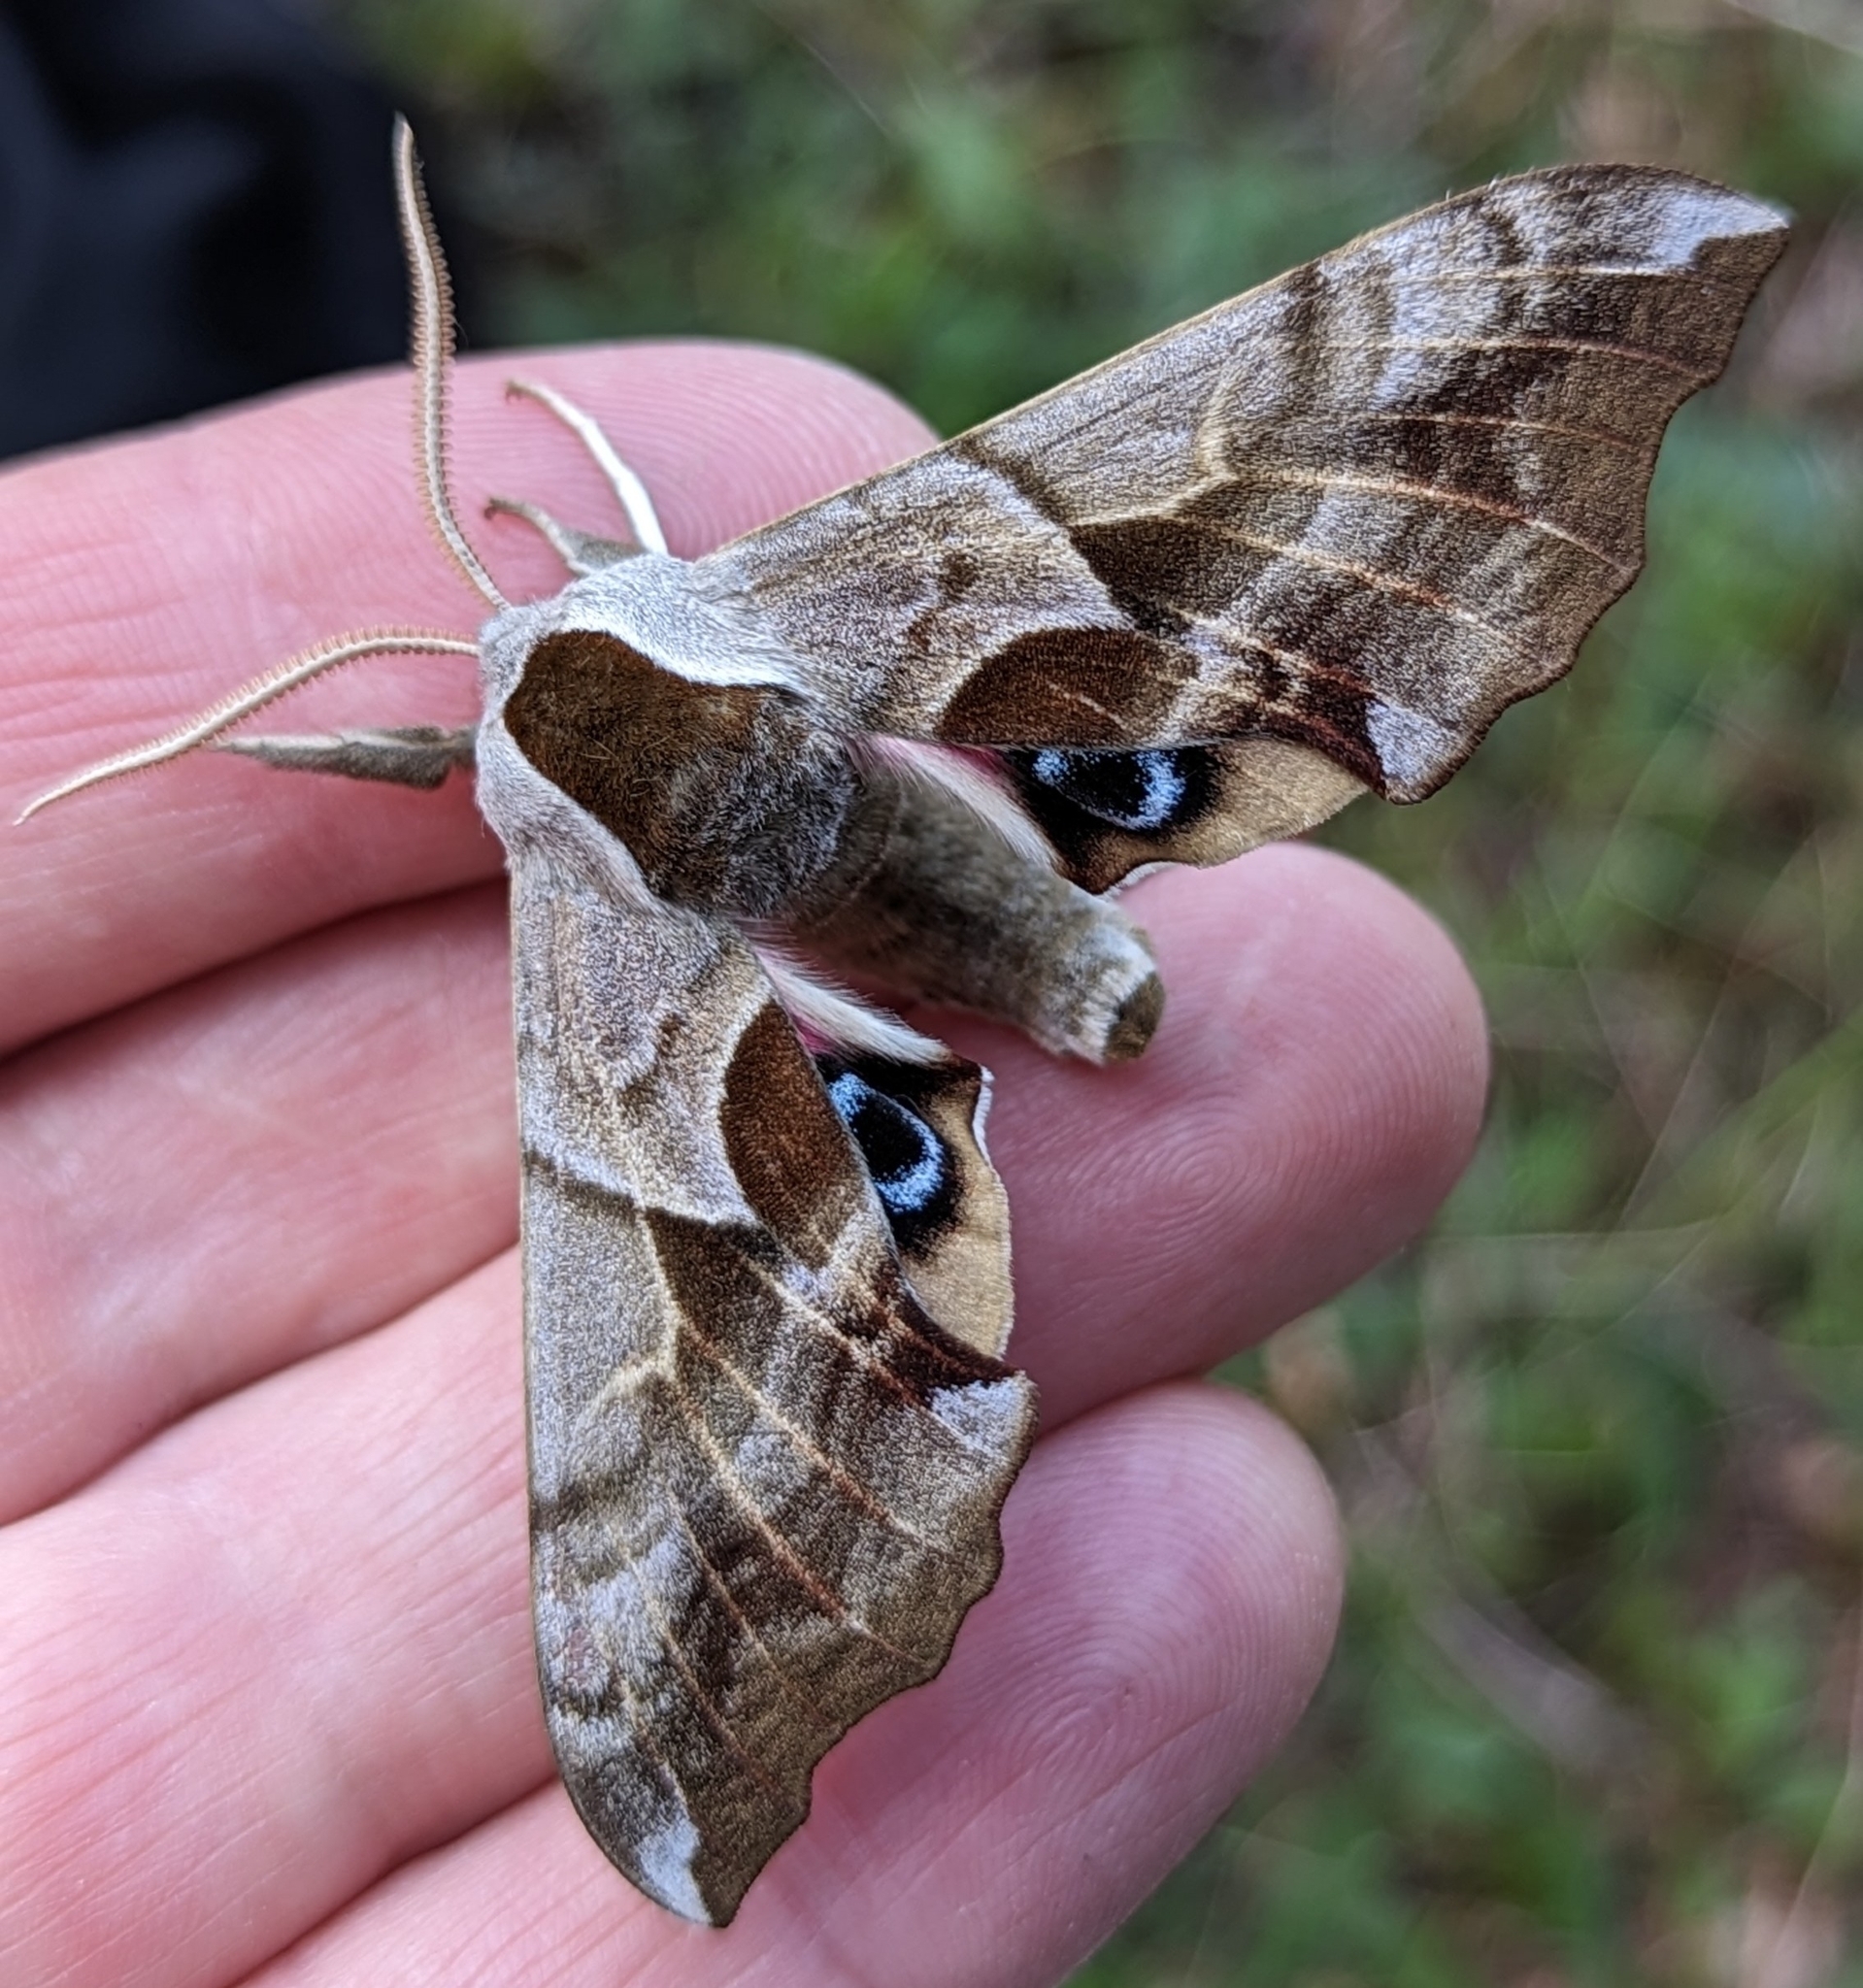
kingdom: Animalia
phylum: Arthropoda
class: Insecta
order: Lepidoptera
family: Sphingidae
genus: Smerinthus
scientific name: Smerinthus cerisyi
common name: Cerisy's sphinx moth
